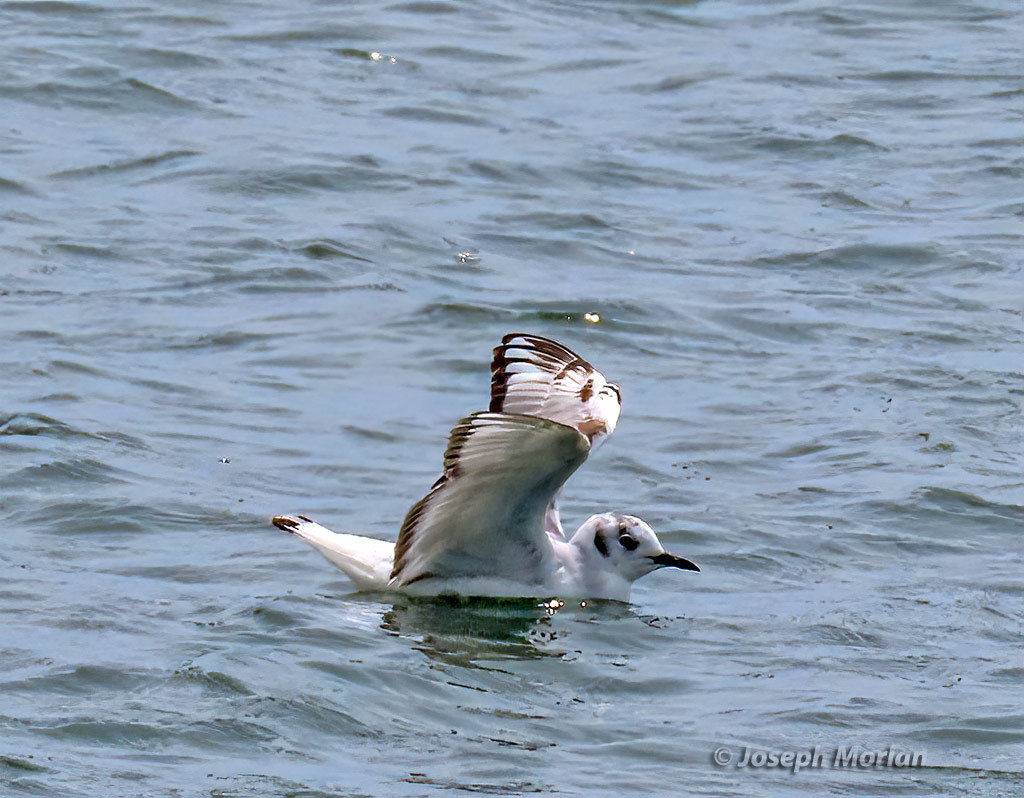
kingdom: Animalia
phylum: Chordata
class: Aves
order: Charadriiformes
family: Laridae
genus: Chroicocephalus
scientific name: Chroicocephalus philadelphia
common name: Bonaparte's gull
